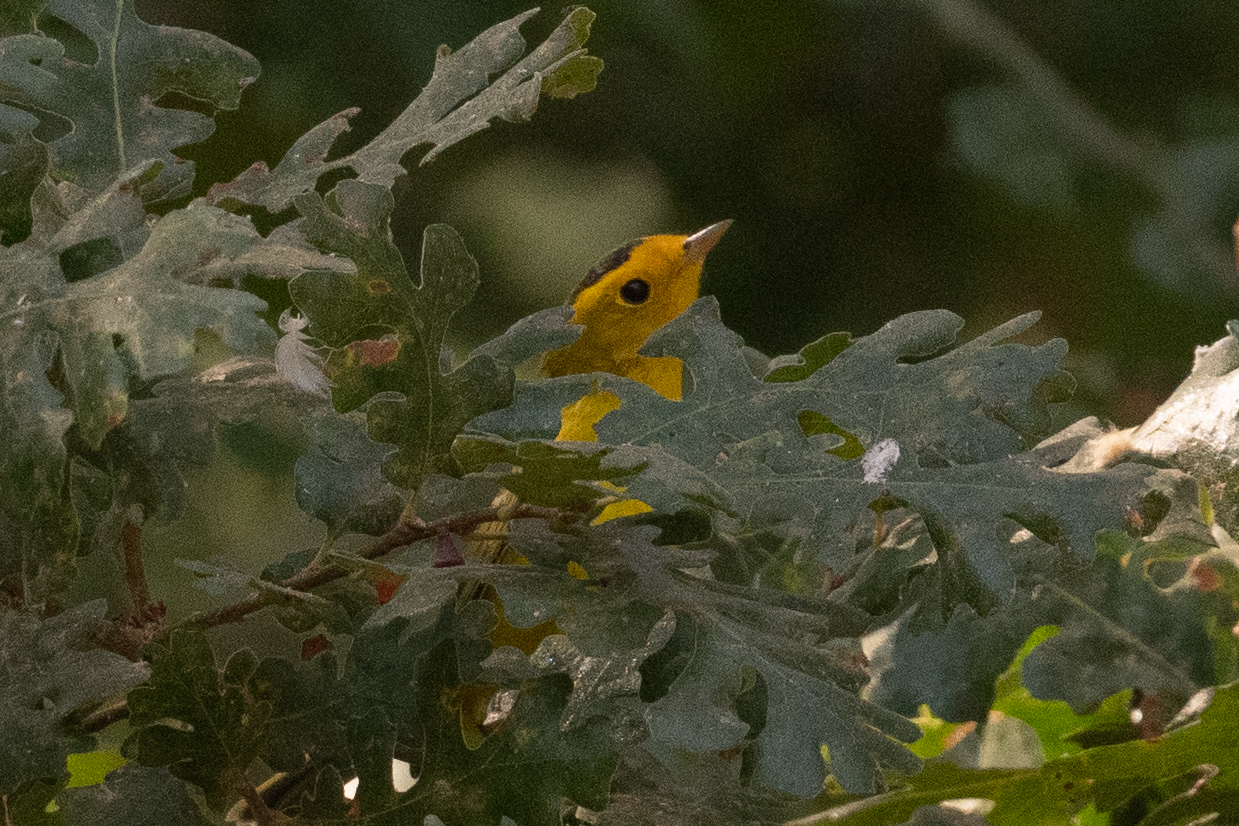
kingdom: Animalia
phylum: Chordata
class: Aves
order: Passeriformes
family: Parulidae
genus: Cardellina
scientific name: Cardellina pusilla
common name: Wilson's warbler
